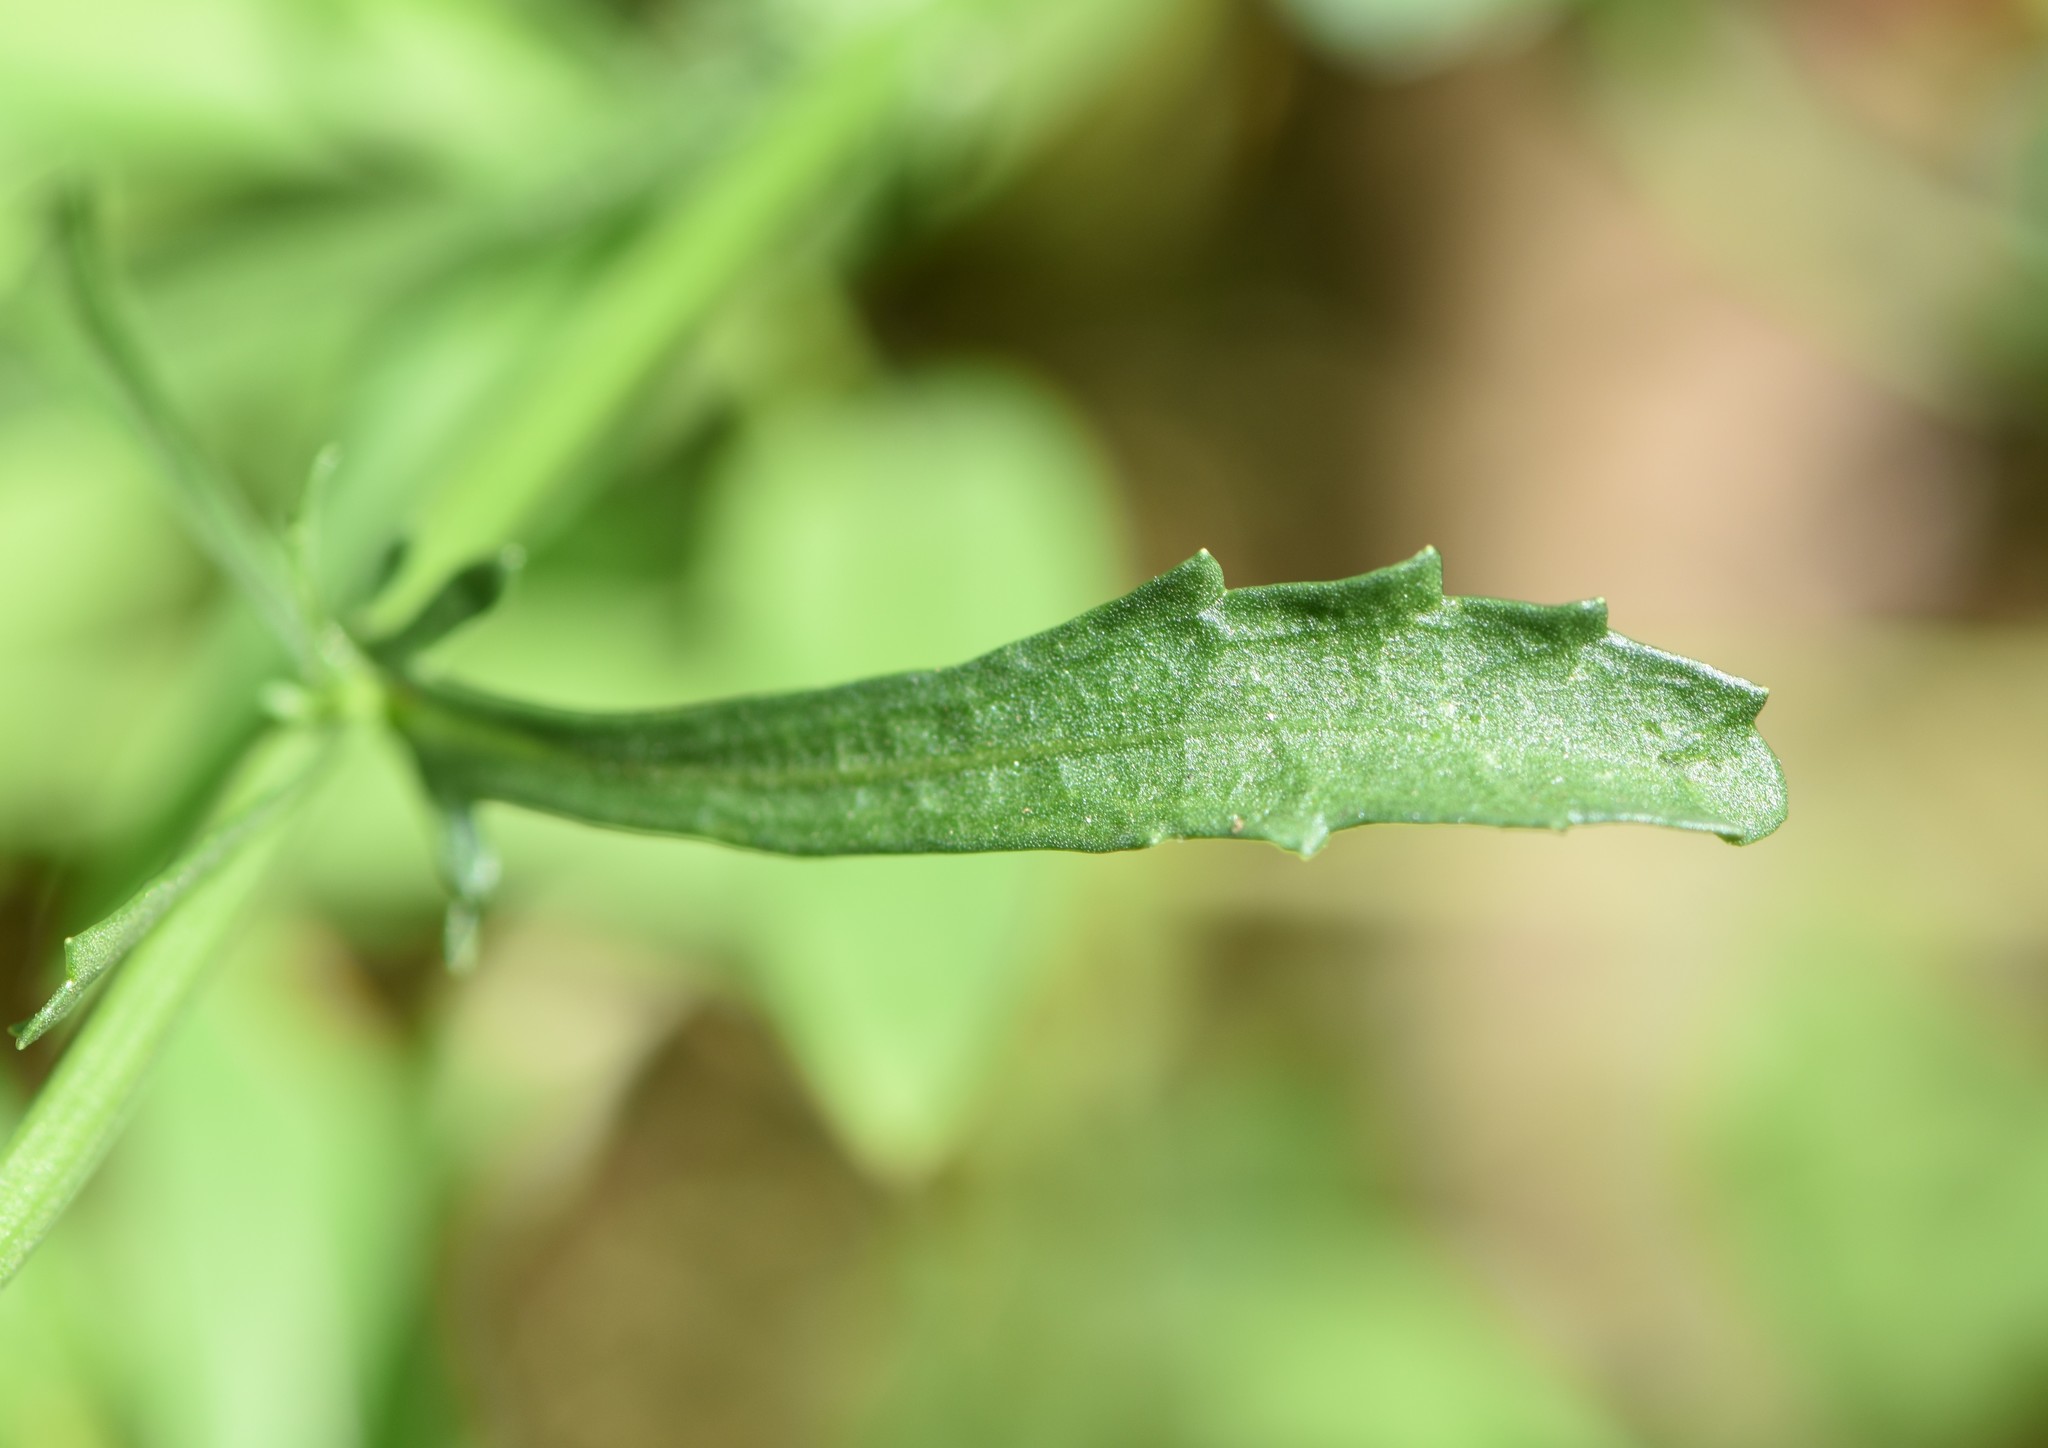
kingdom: Plantae
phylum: Tracheophyta
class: Magnoliopsida
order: Asterales
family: Asteraceae
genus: Leucanthemum
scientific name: Leucanthemum vulgare
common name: Oxeye daisy
